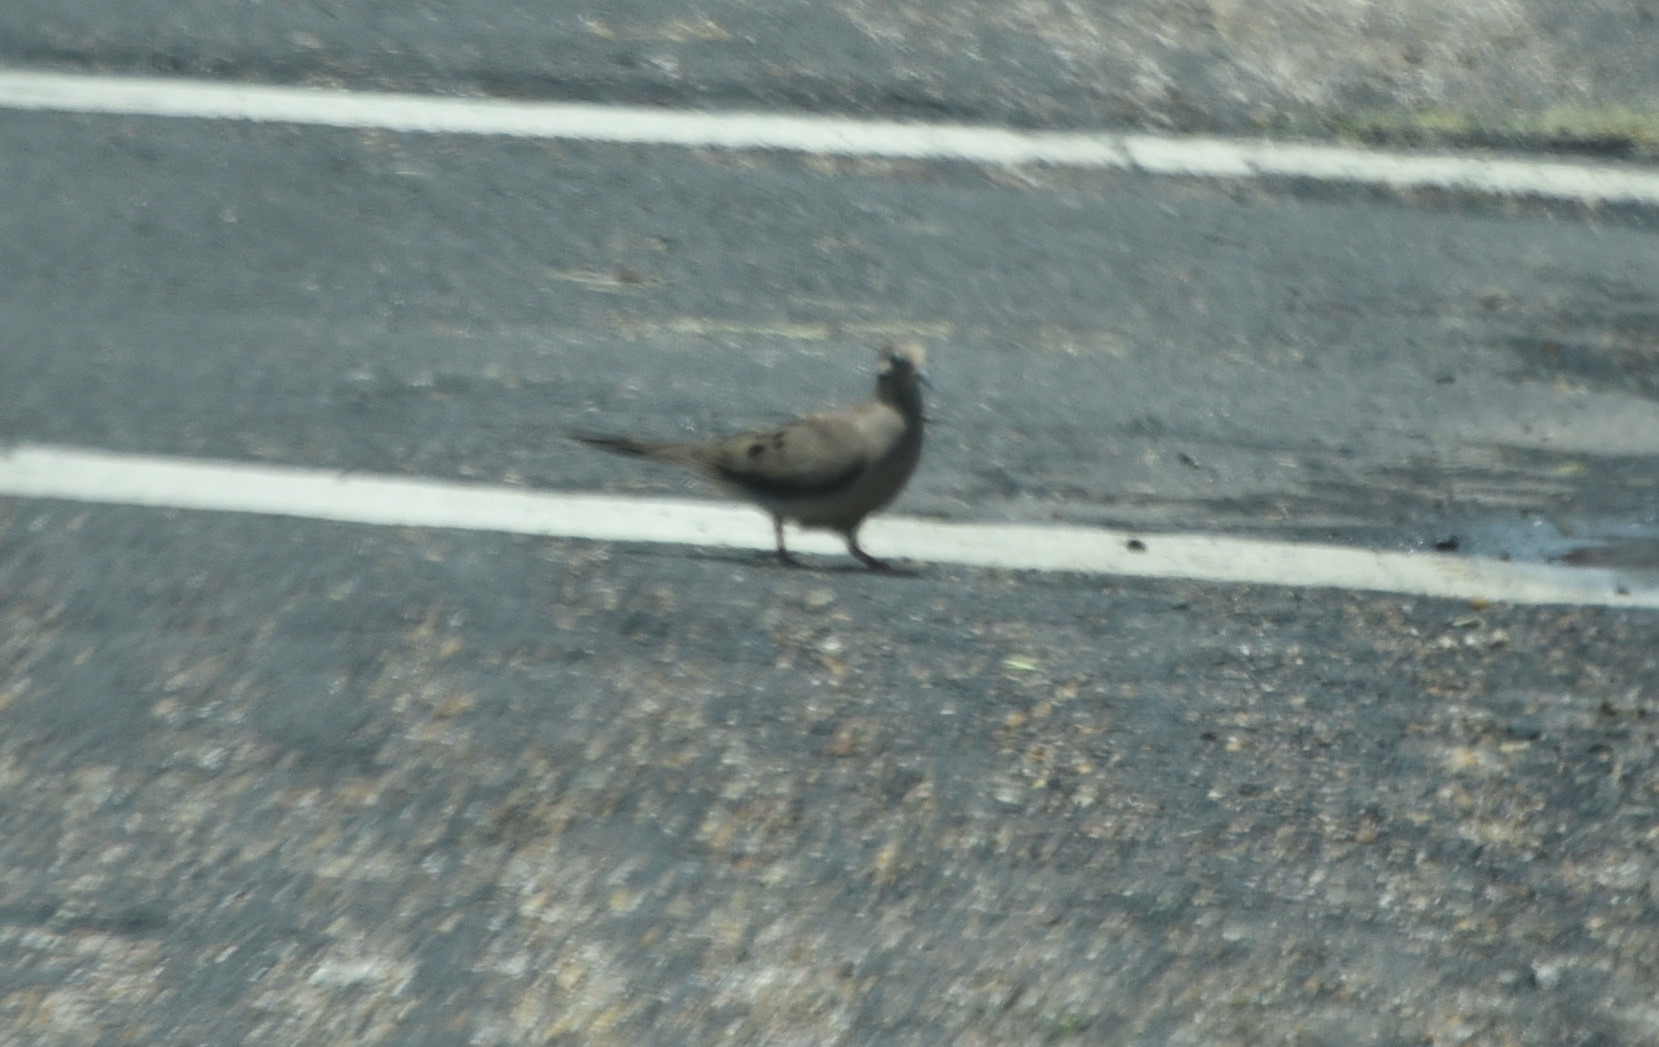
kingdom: Animalia
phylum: Chordata
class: Aves
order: Columbiformes
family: Columbidae
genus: Zenaida
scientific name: Zenaida macroura
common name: Mourning dove
